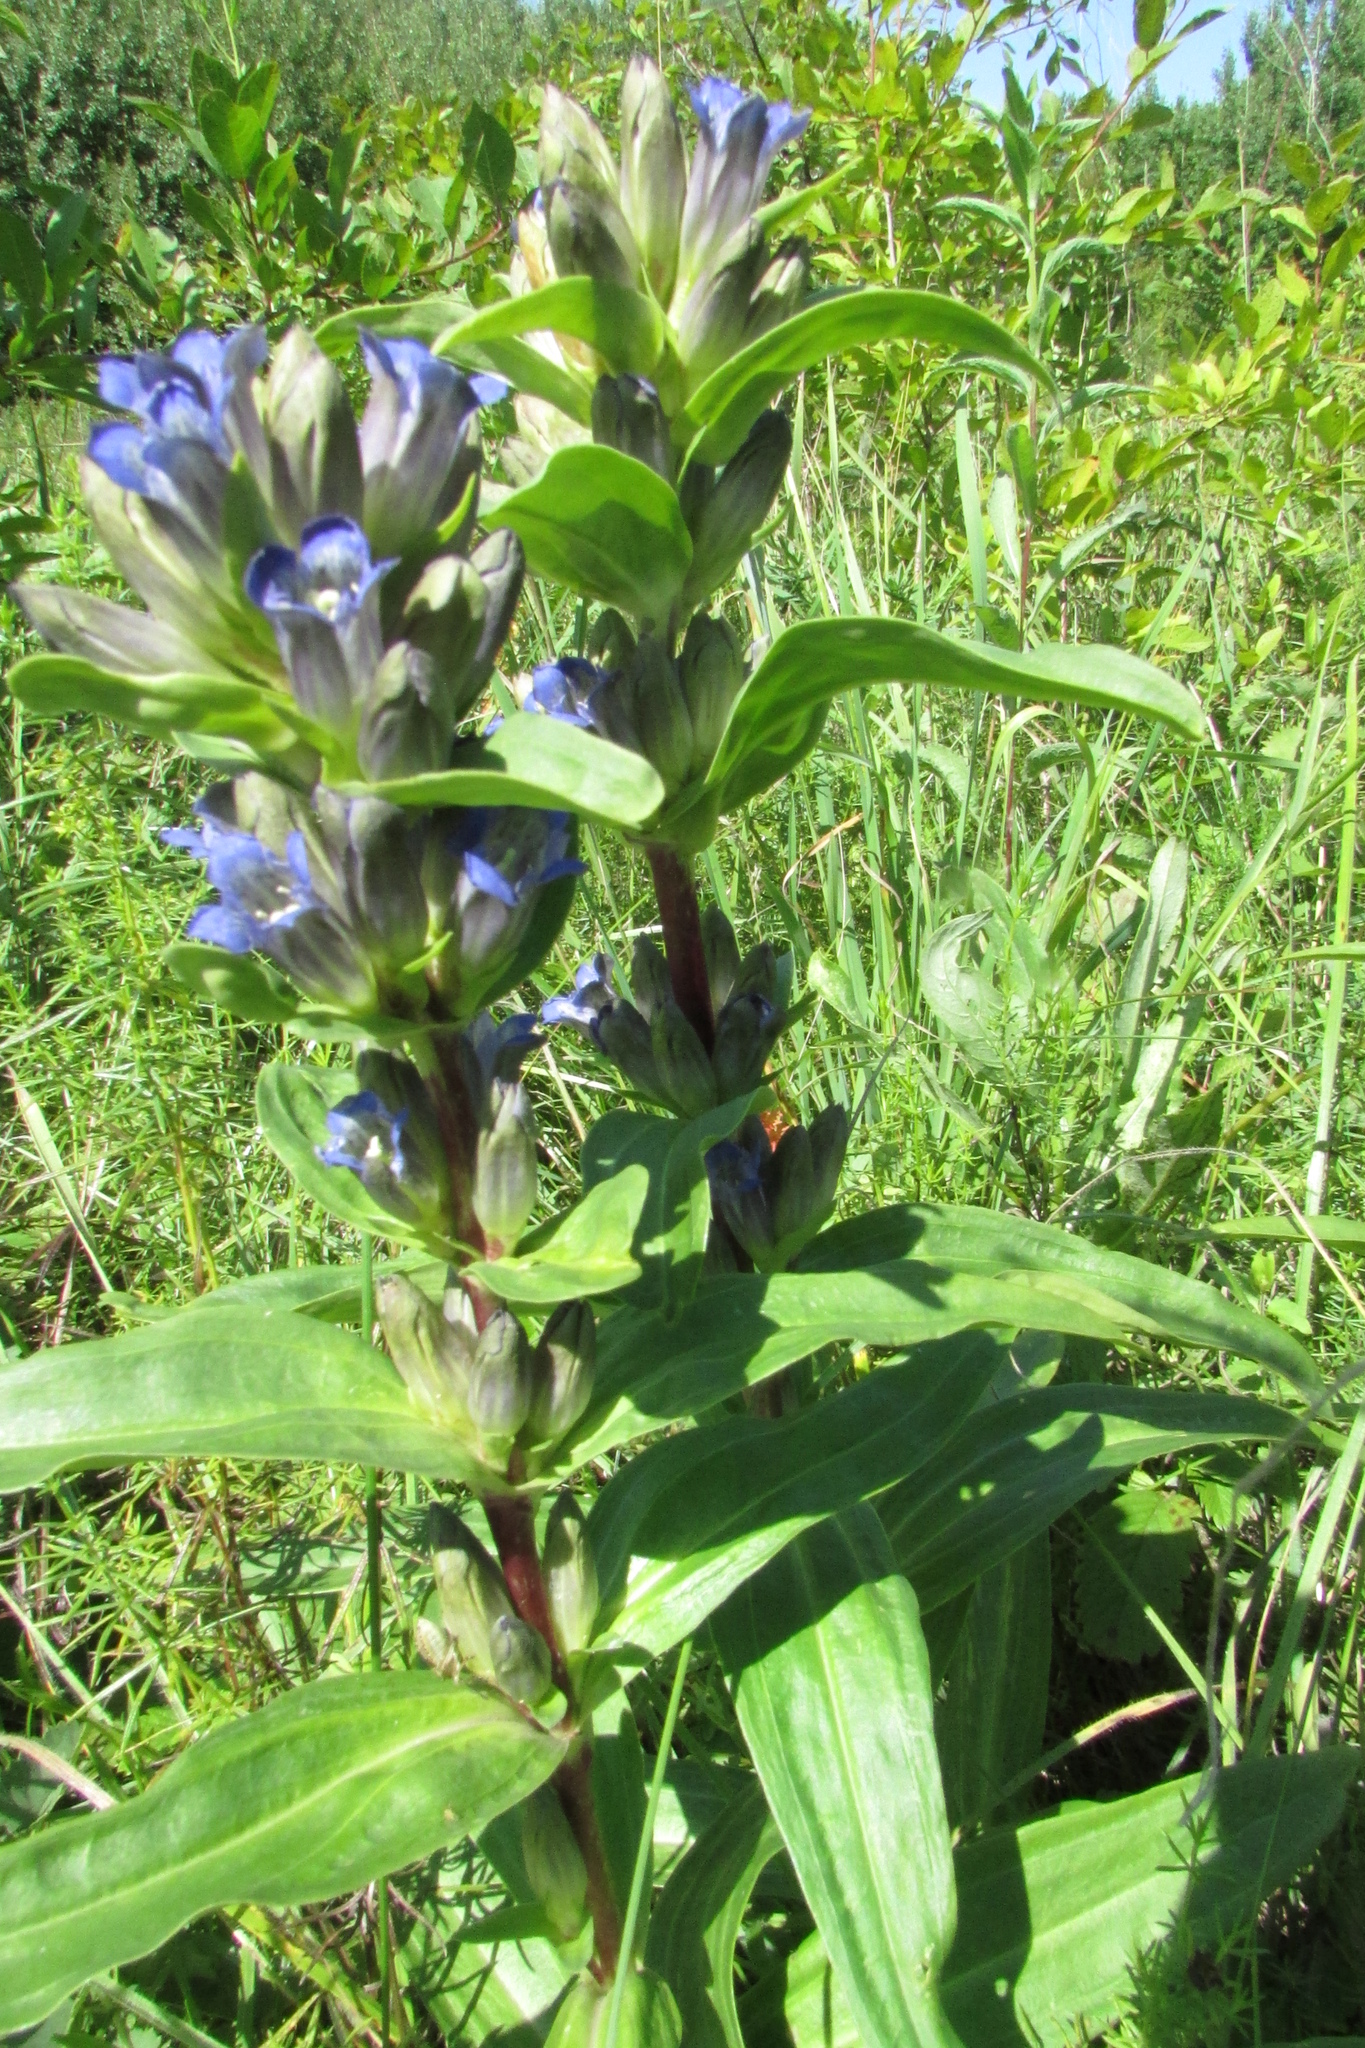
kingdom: Plantae
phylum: Tracheophyta
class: Magnoliopsida
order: Gentianales
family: Gentianaceae
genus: Gentiana
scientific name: Gentiana cruciata
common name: Cross gentian
